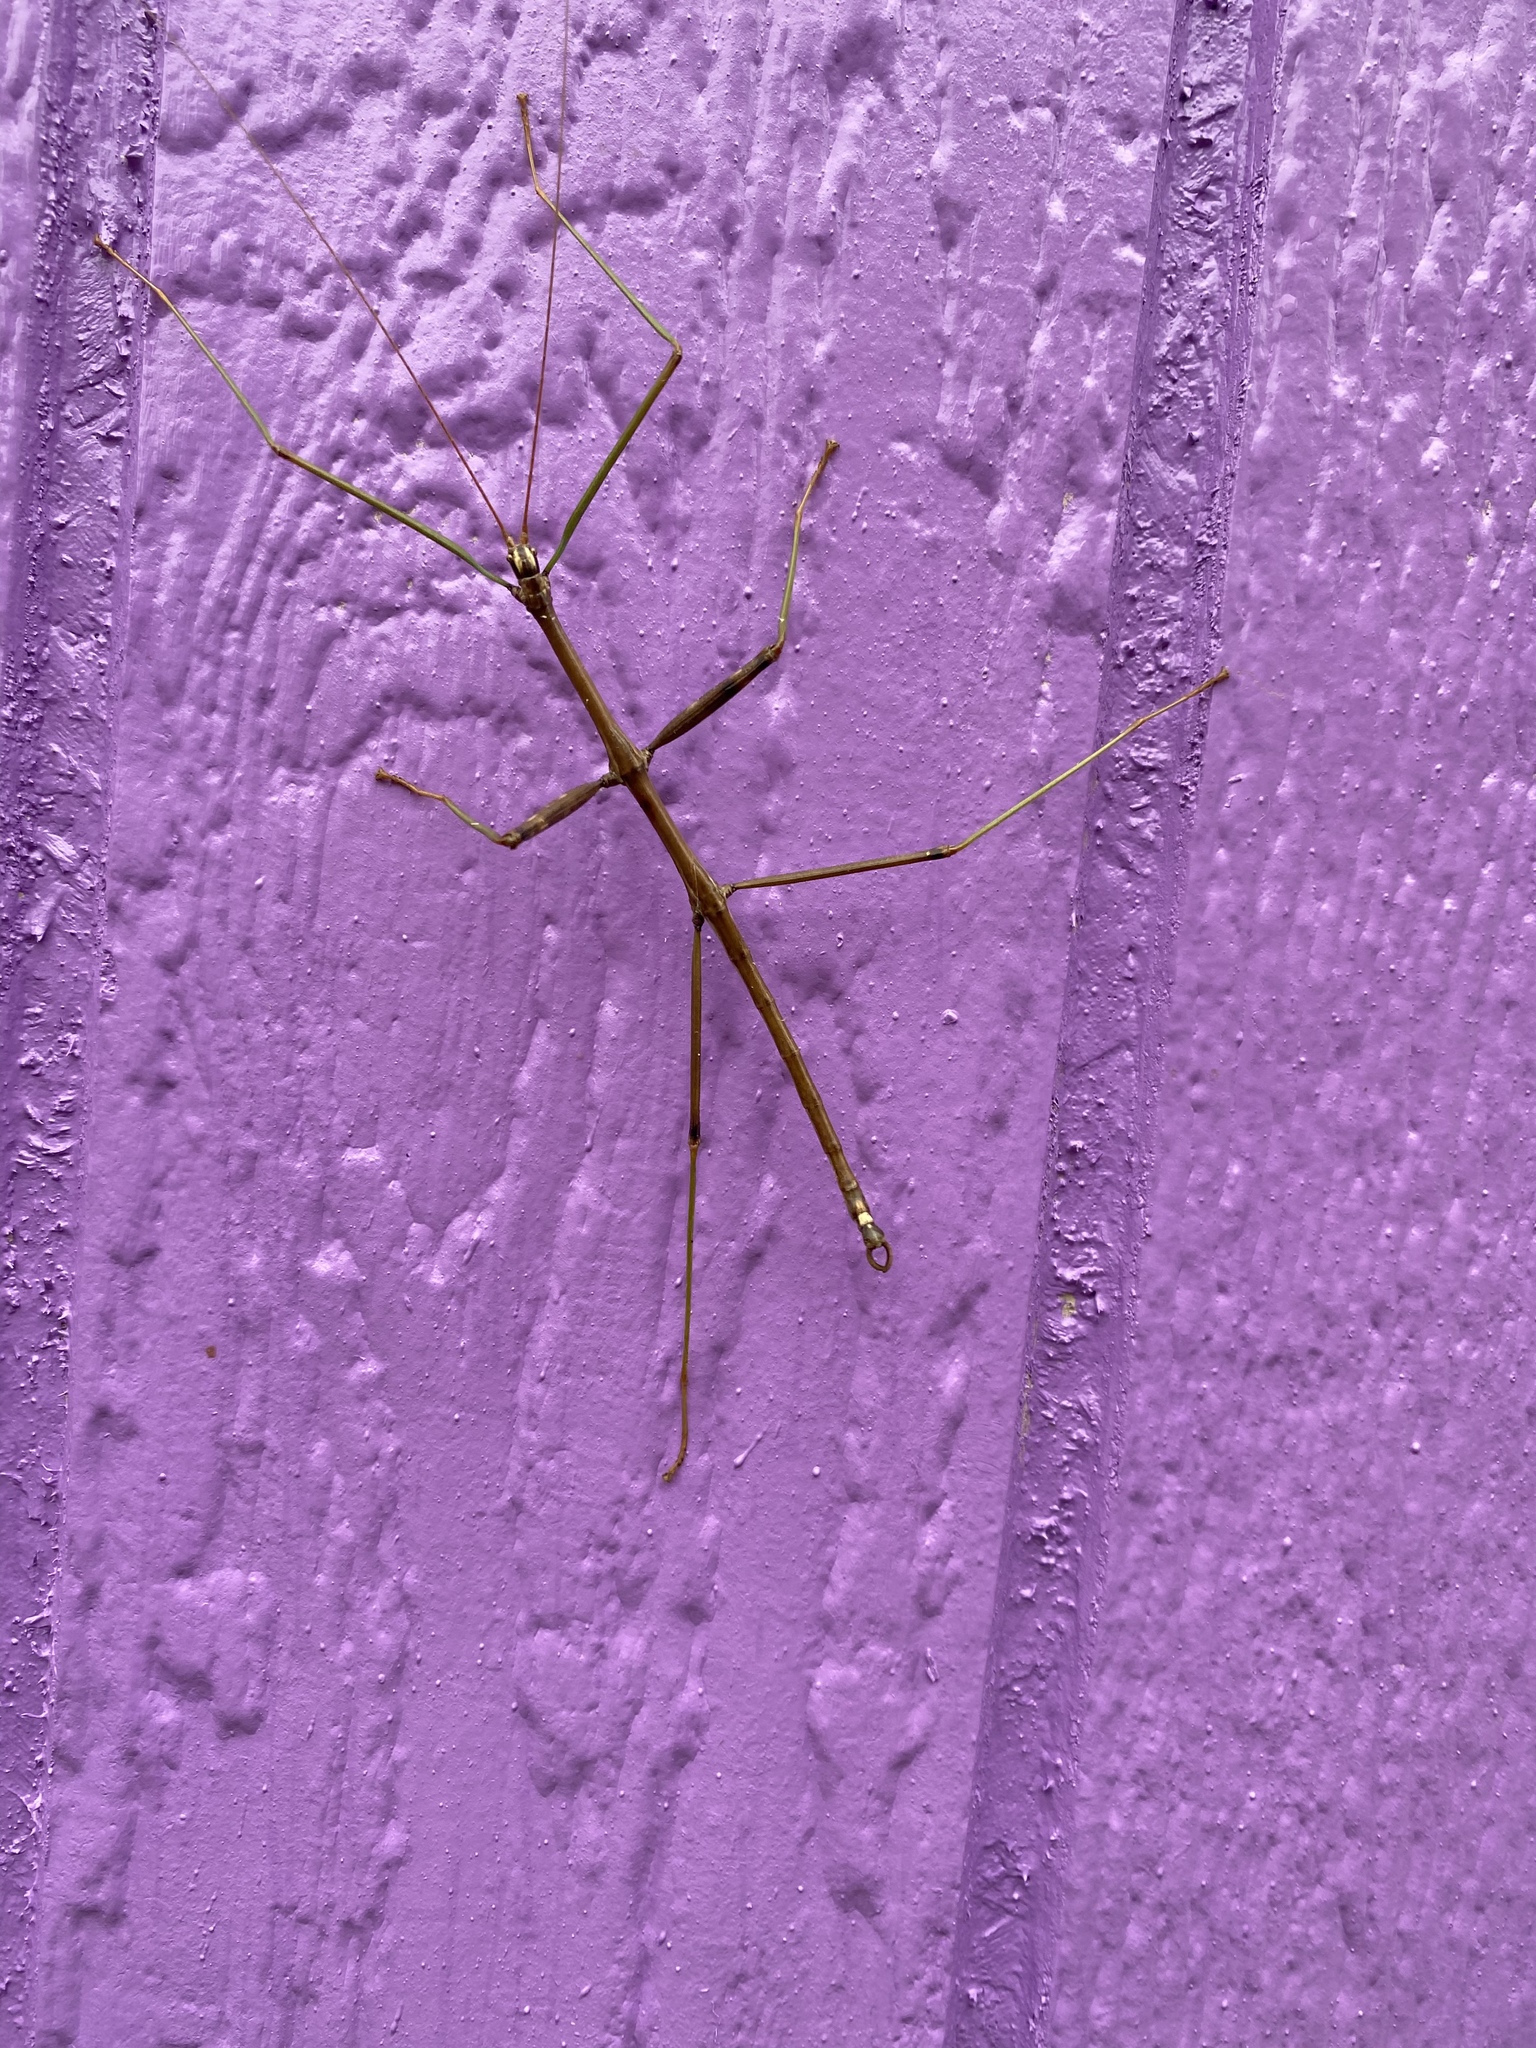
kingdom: Animalia
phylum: Arthropoda
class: Insecta
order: Phasmida
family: Diapheromeridae
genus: Diapheromera
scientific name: Diapheromera femorata
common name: Common american walkingstick
